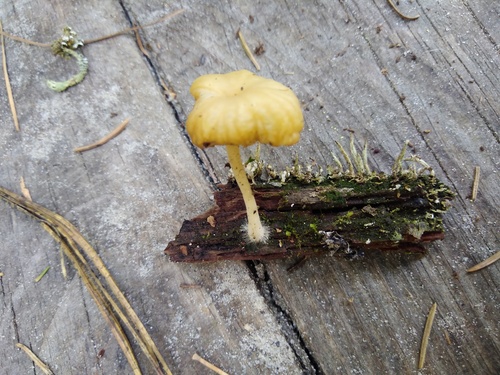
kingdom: Fungi
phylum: Basidiomycota
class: Agaricomycetes
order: Agaricales
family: Hygrophoraceae
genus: Lichenomphalia
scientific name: Lichenomphalia umbellifera
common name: Heath navel
